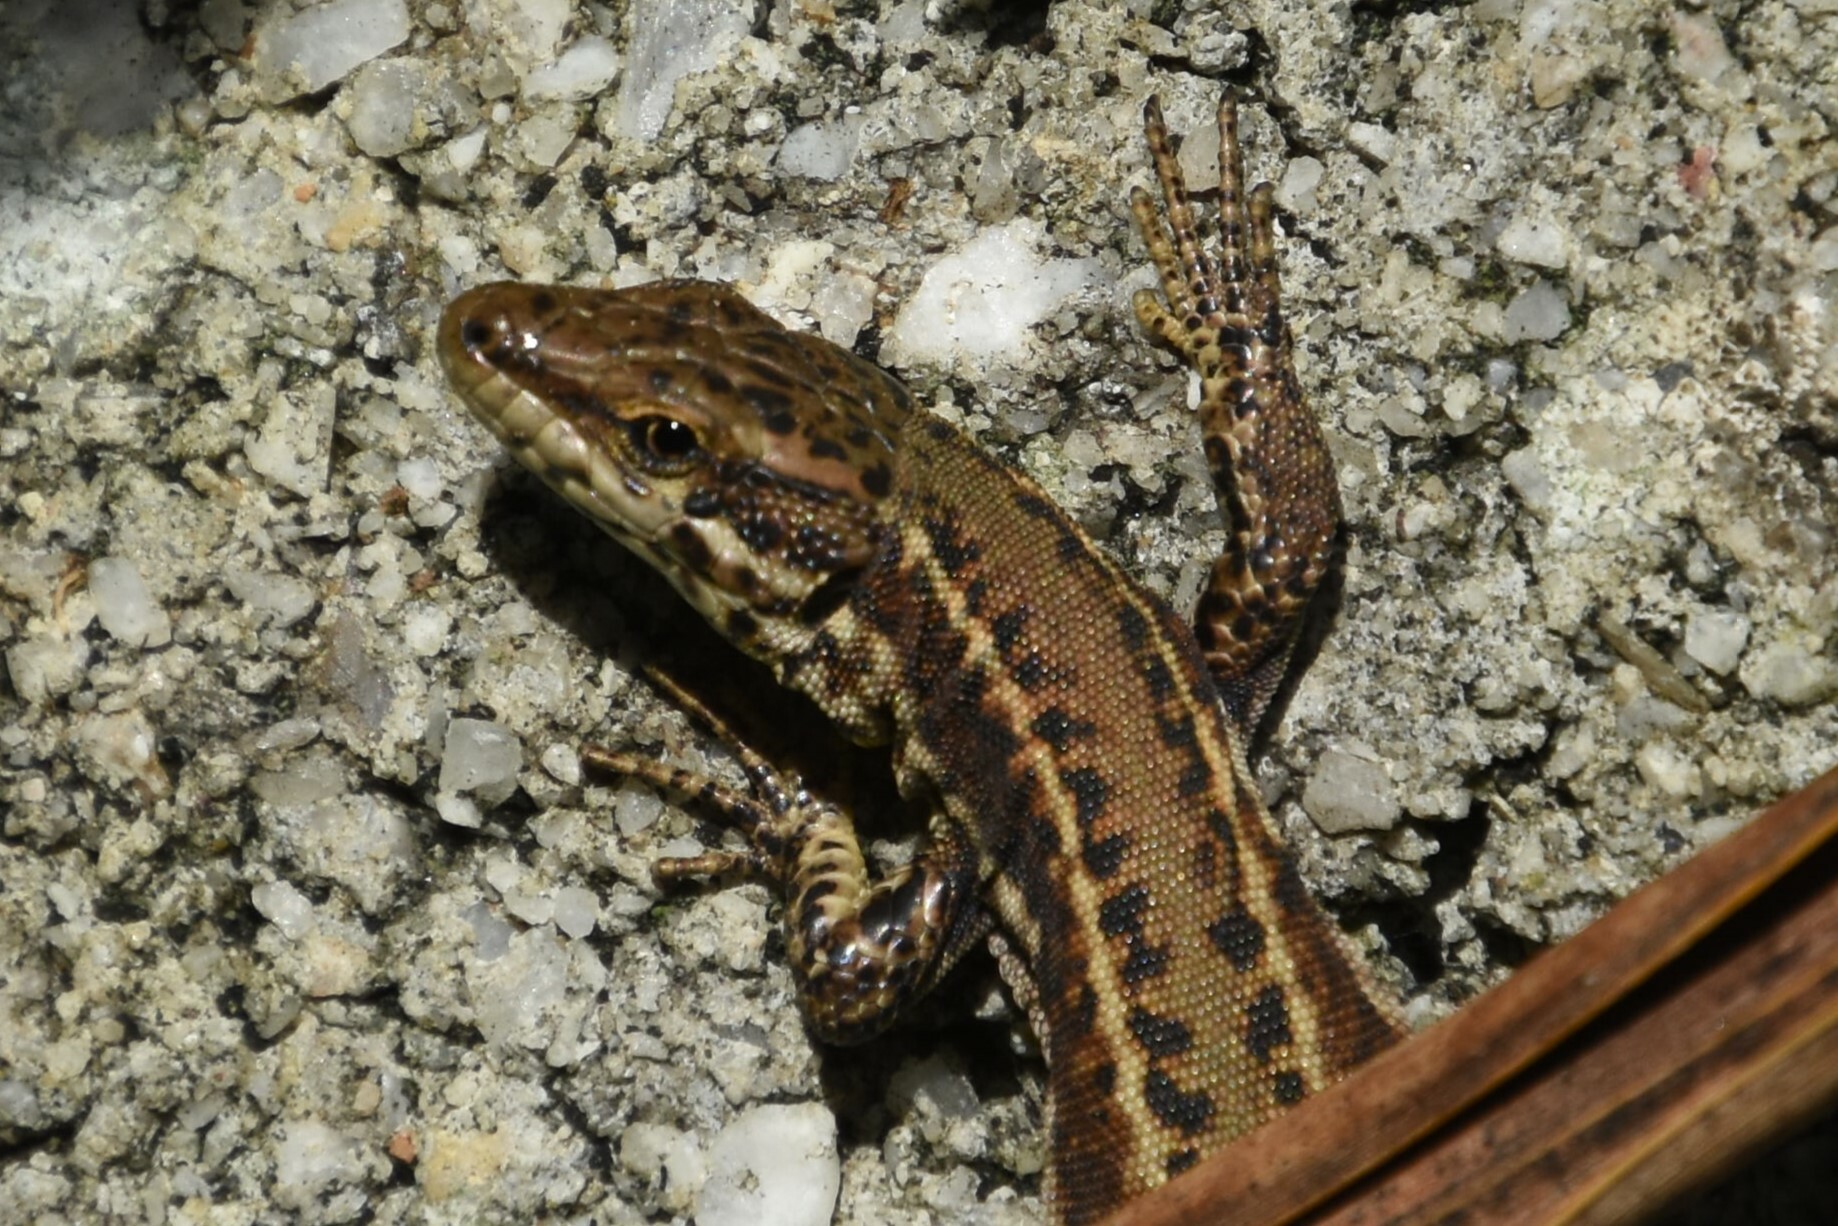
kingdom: Animalia
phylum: Chordata
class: Squamata
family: Lacertidae
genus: Podarcis
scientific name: Podarcis bocagei
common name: Bocage's wall lizard
